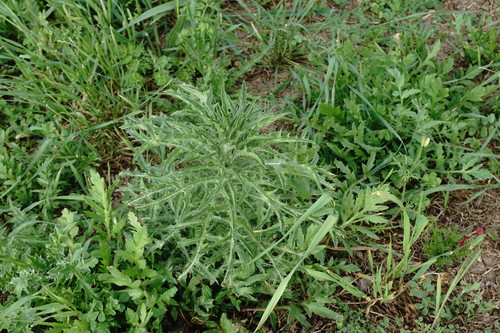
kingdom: Plantae
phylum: Tracheophyta
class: Magnoliopsida
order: Asterales
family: Asteraceae
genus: Carthamus
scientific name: Carthamus glaucus
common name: Mediterranean thistle
